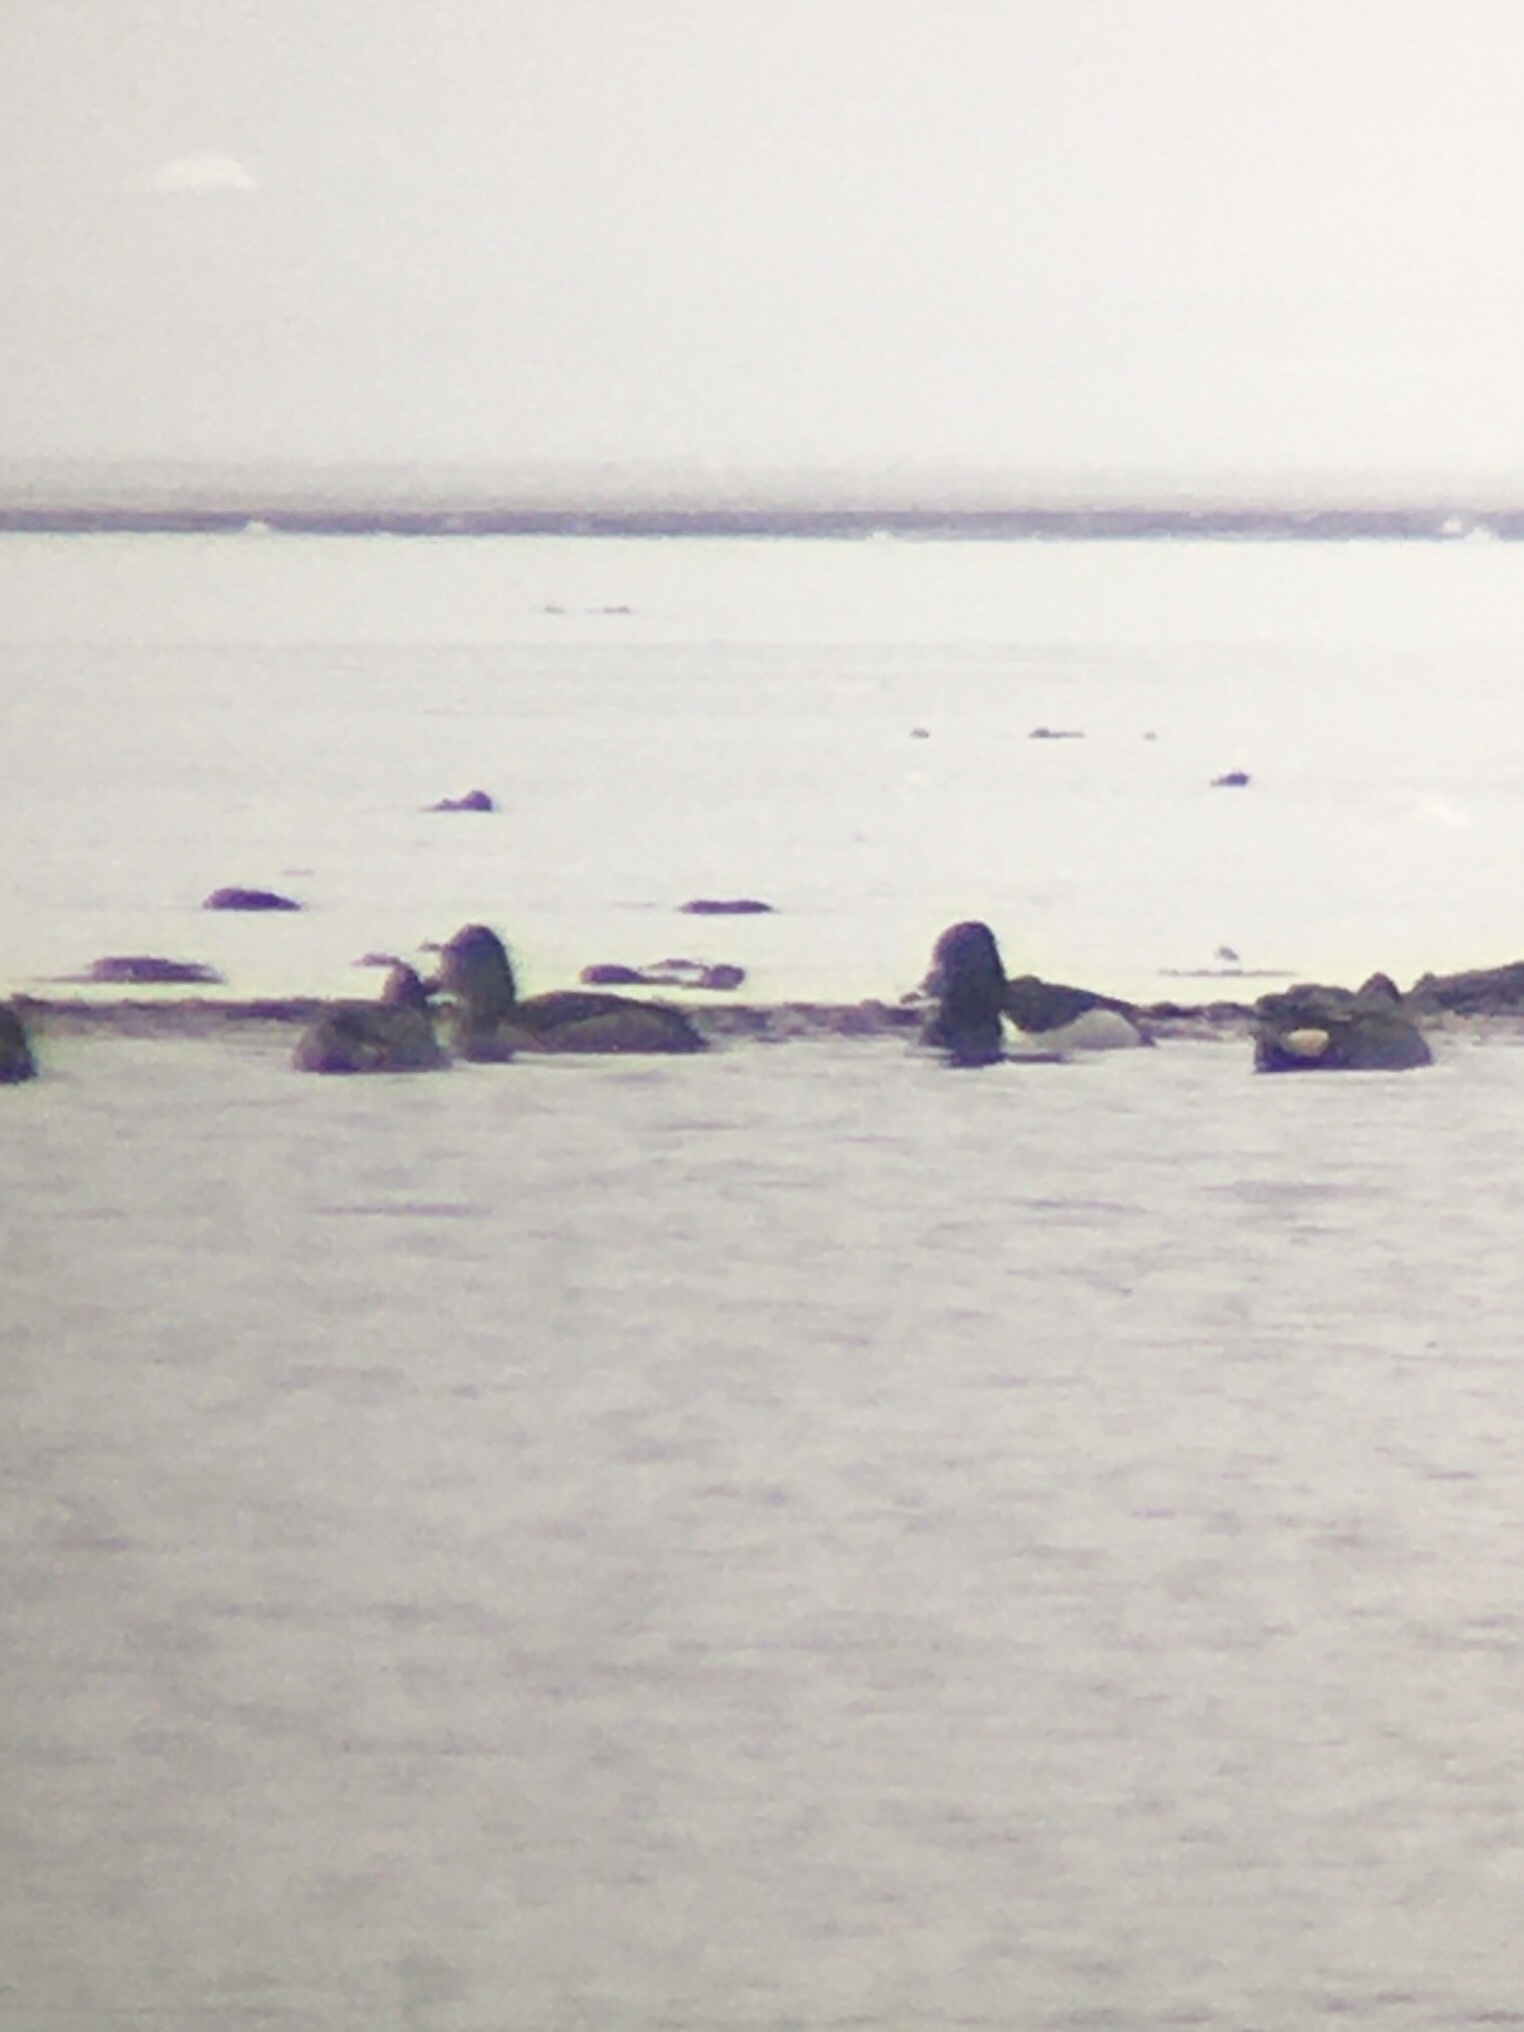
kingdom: Animalia
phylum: Chordata
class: Aves
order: Anseriformes
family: Anatidae
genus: Aythya
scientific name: Aythya collaris
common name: Ring-necked duck
